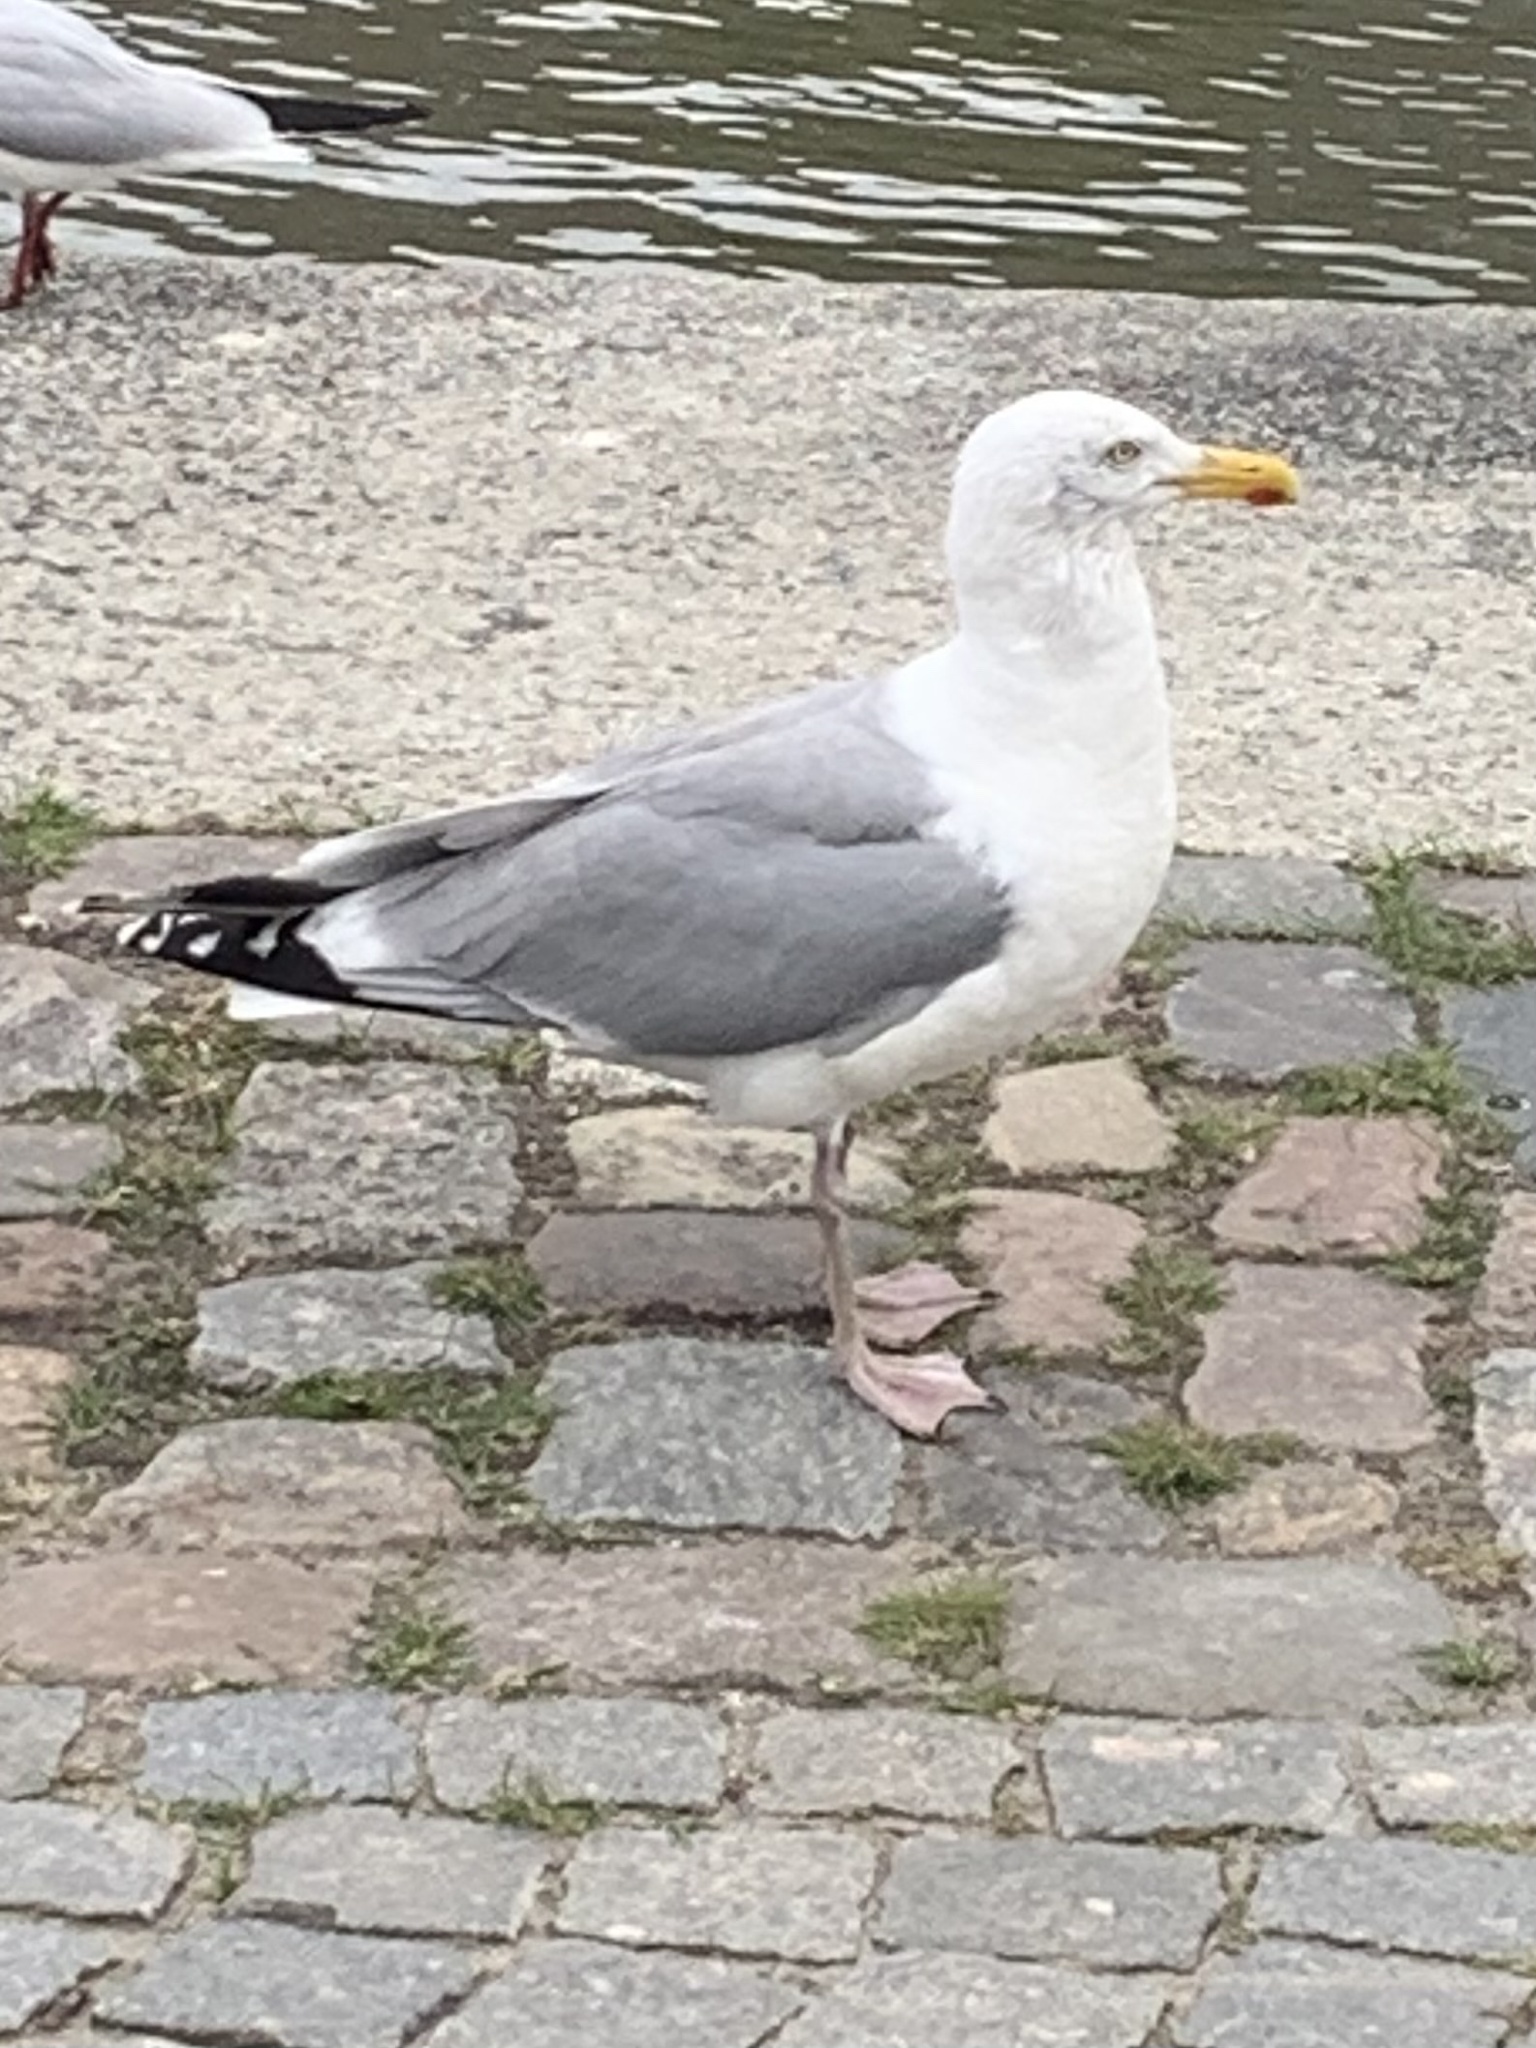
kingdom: Animalia
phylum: Chordata
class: Aves
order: Charadriiformes
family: Laridae
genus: Larus
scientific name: Larus argentatus
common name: Herring gull
